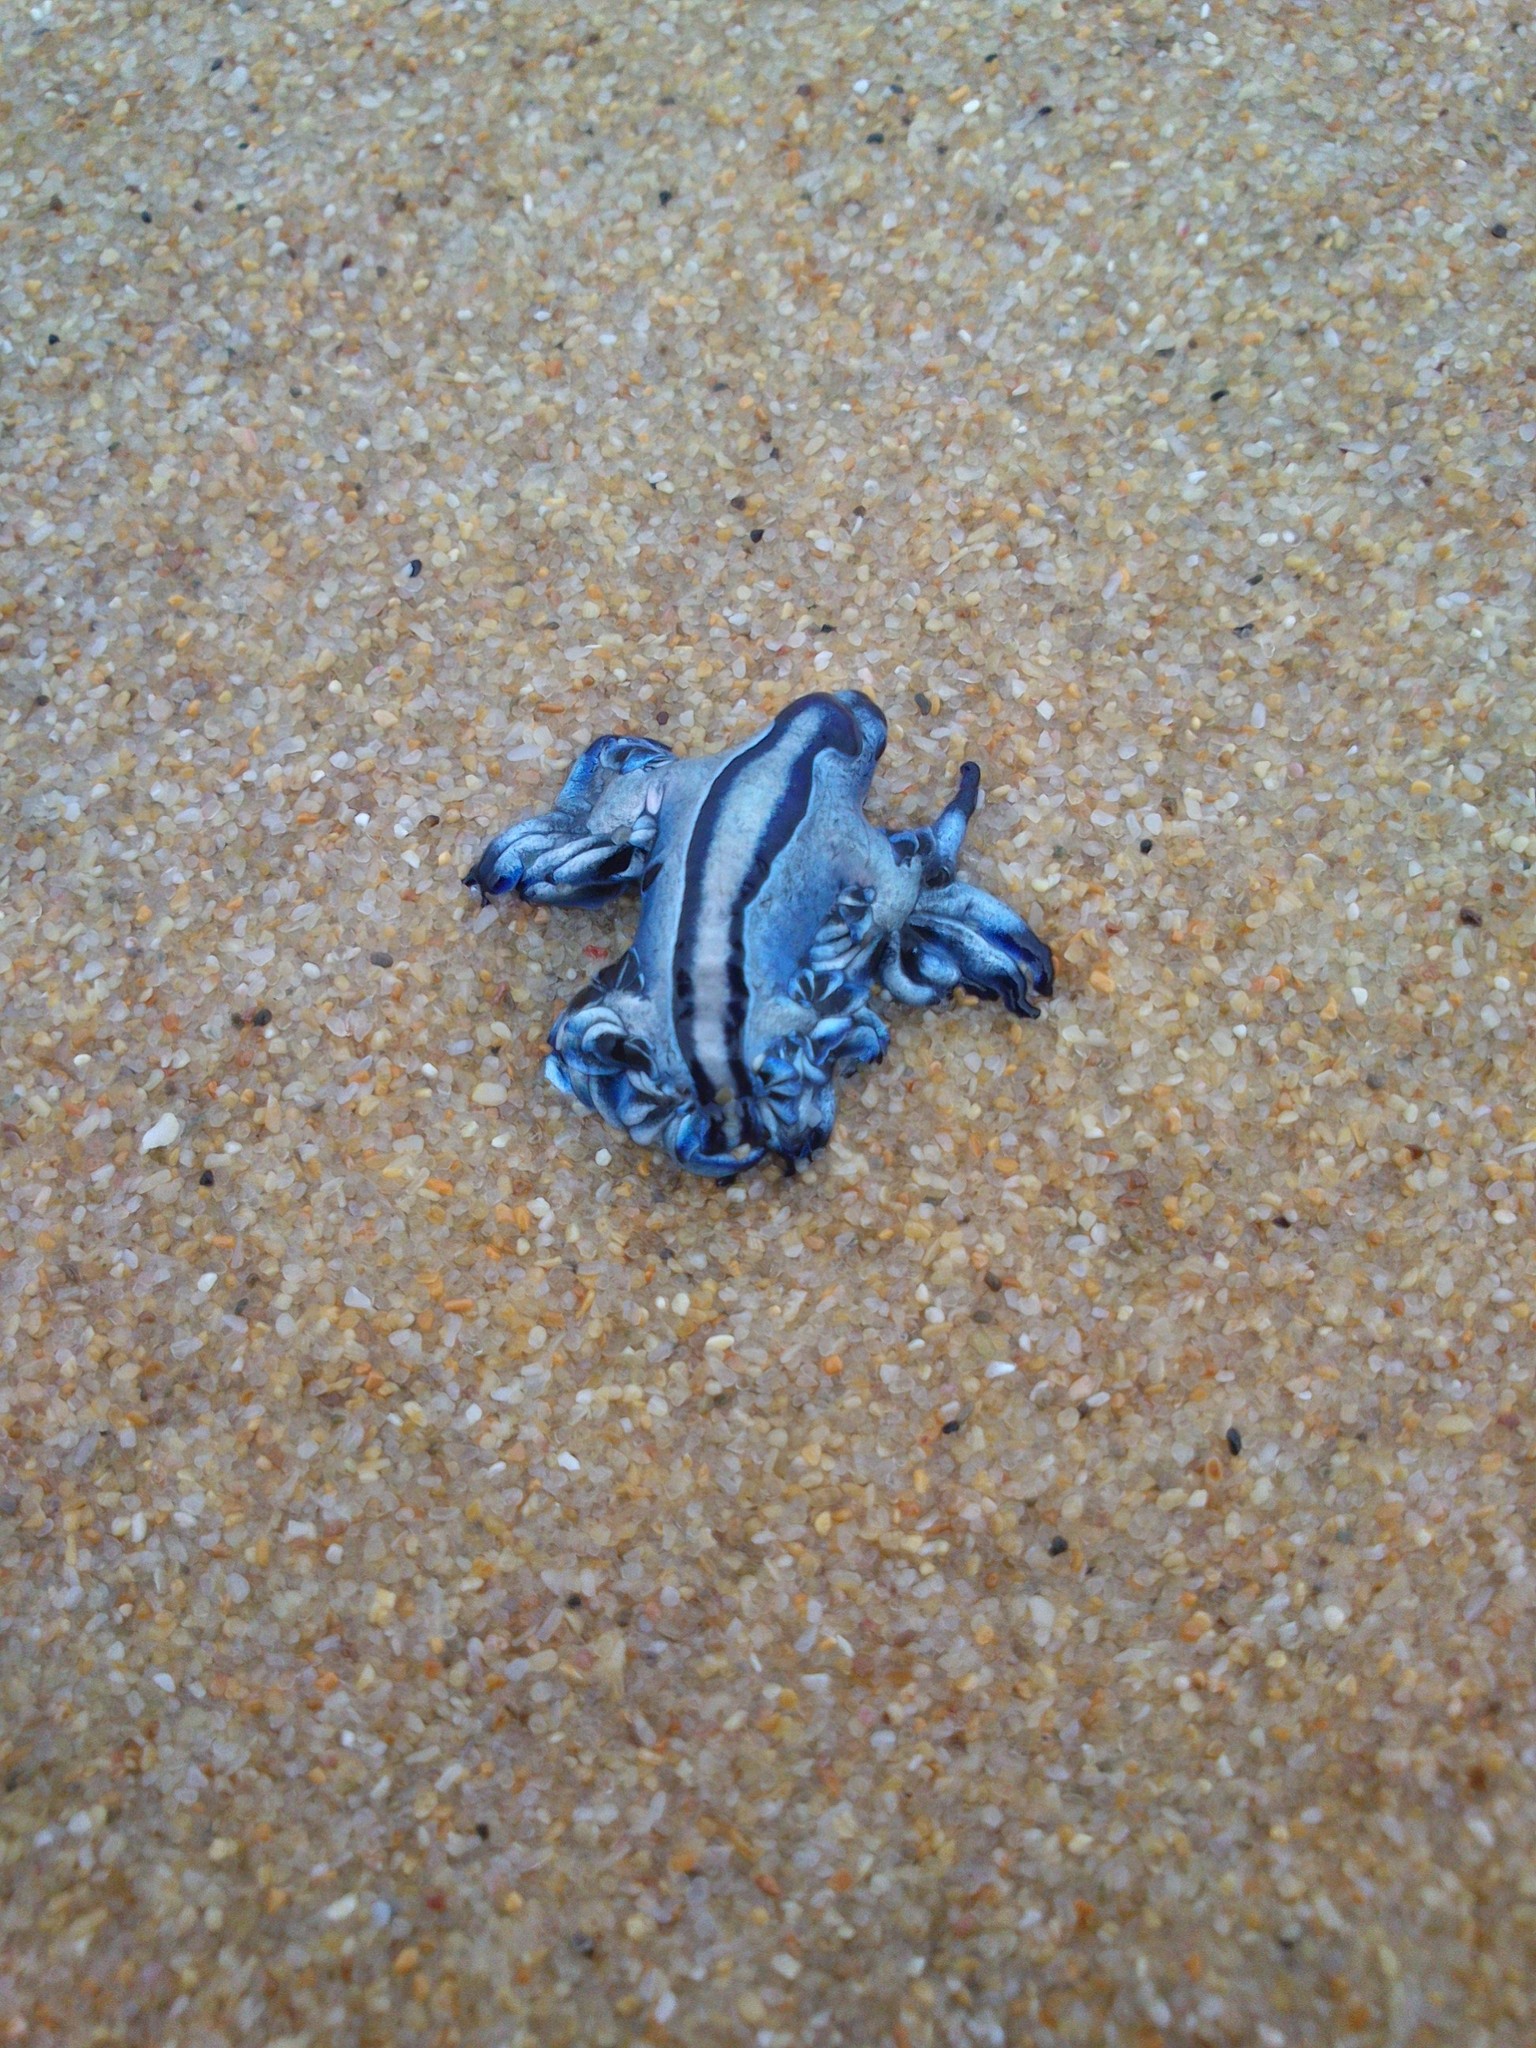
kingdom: Animalia
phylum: Mollusca
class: Gastropoda
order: Nudibranchia
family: Glaucidae
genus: Glaucus
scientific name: Glaucus atlanticus
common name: Purple ocean slug
